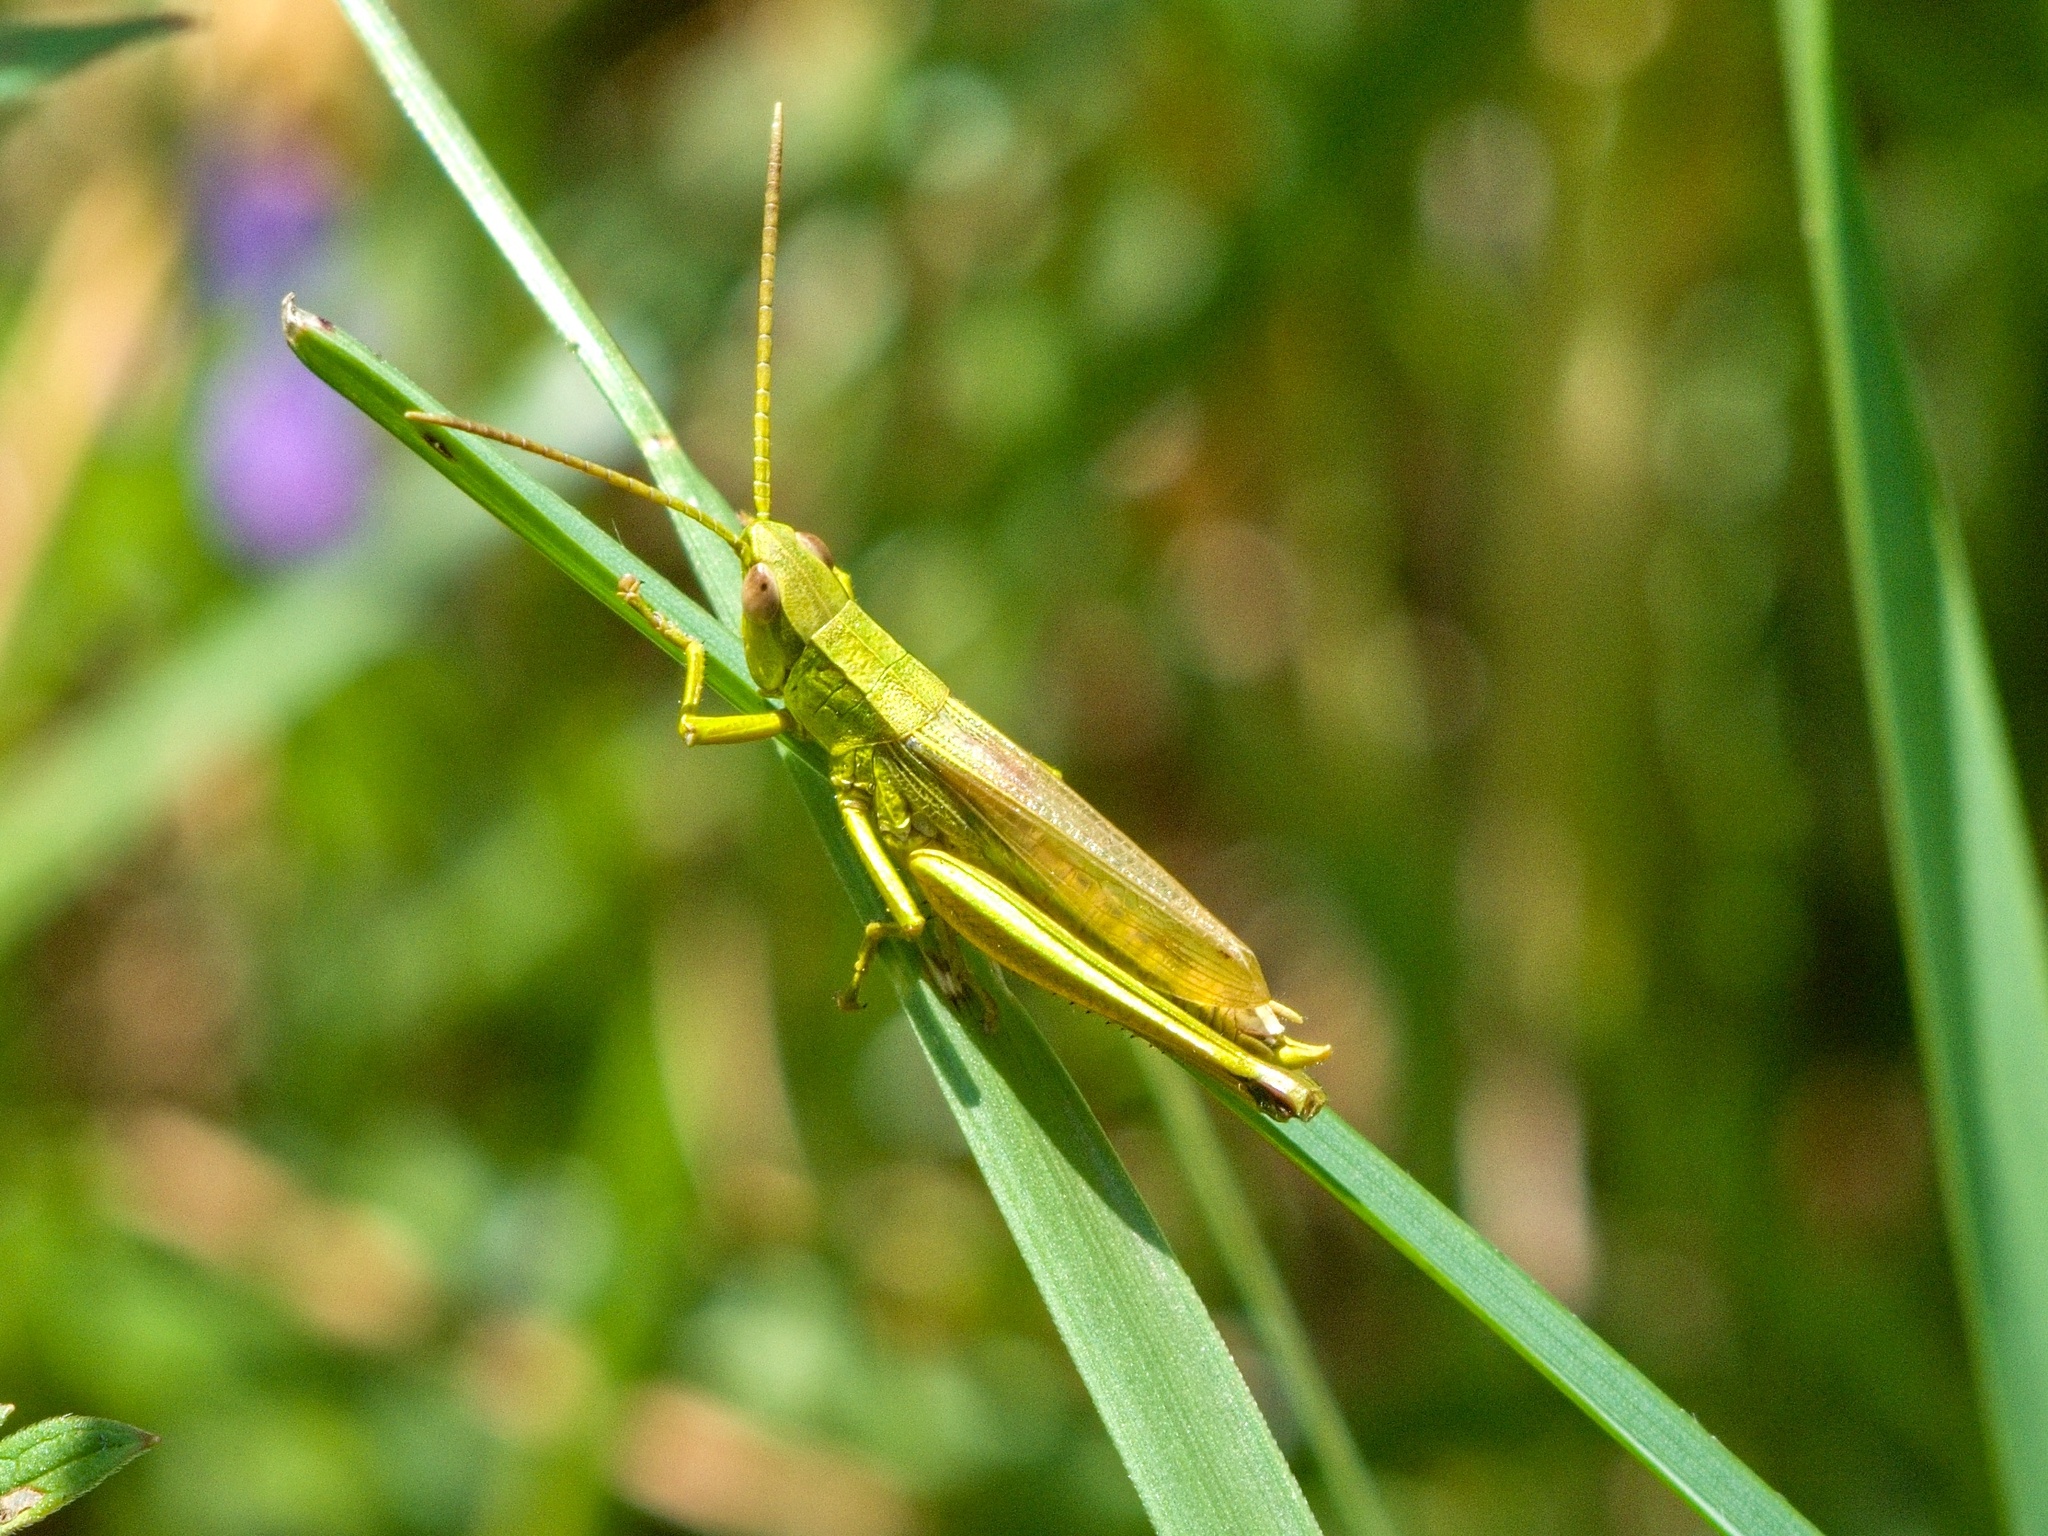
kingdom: Animalia
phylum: Arthropoda
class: Insecta
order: Orthoptera
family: Acrididae
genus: Chrysochraon
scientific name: Chrysochraon dispar
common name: Large gold grasshopper
